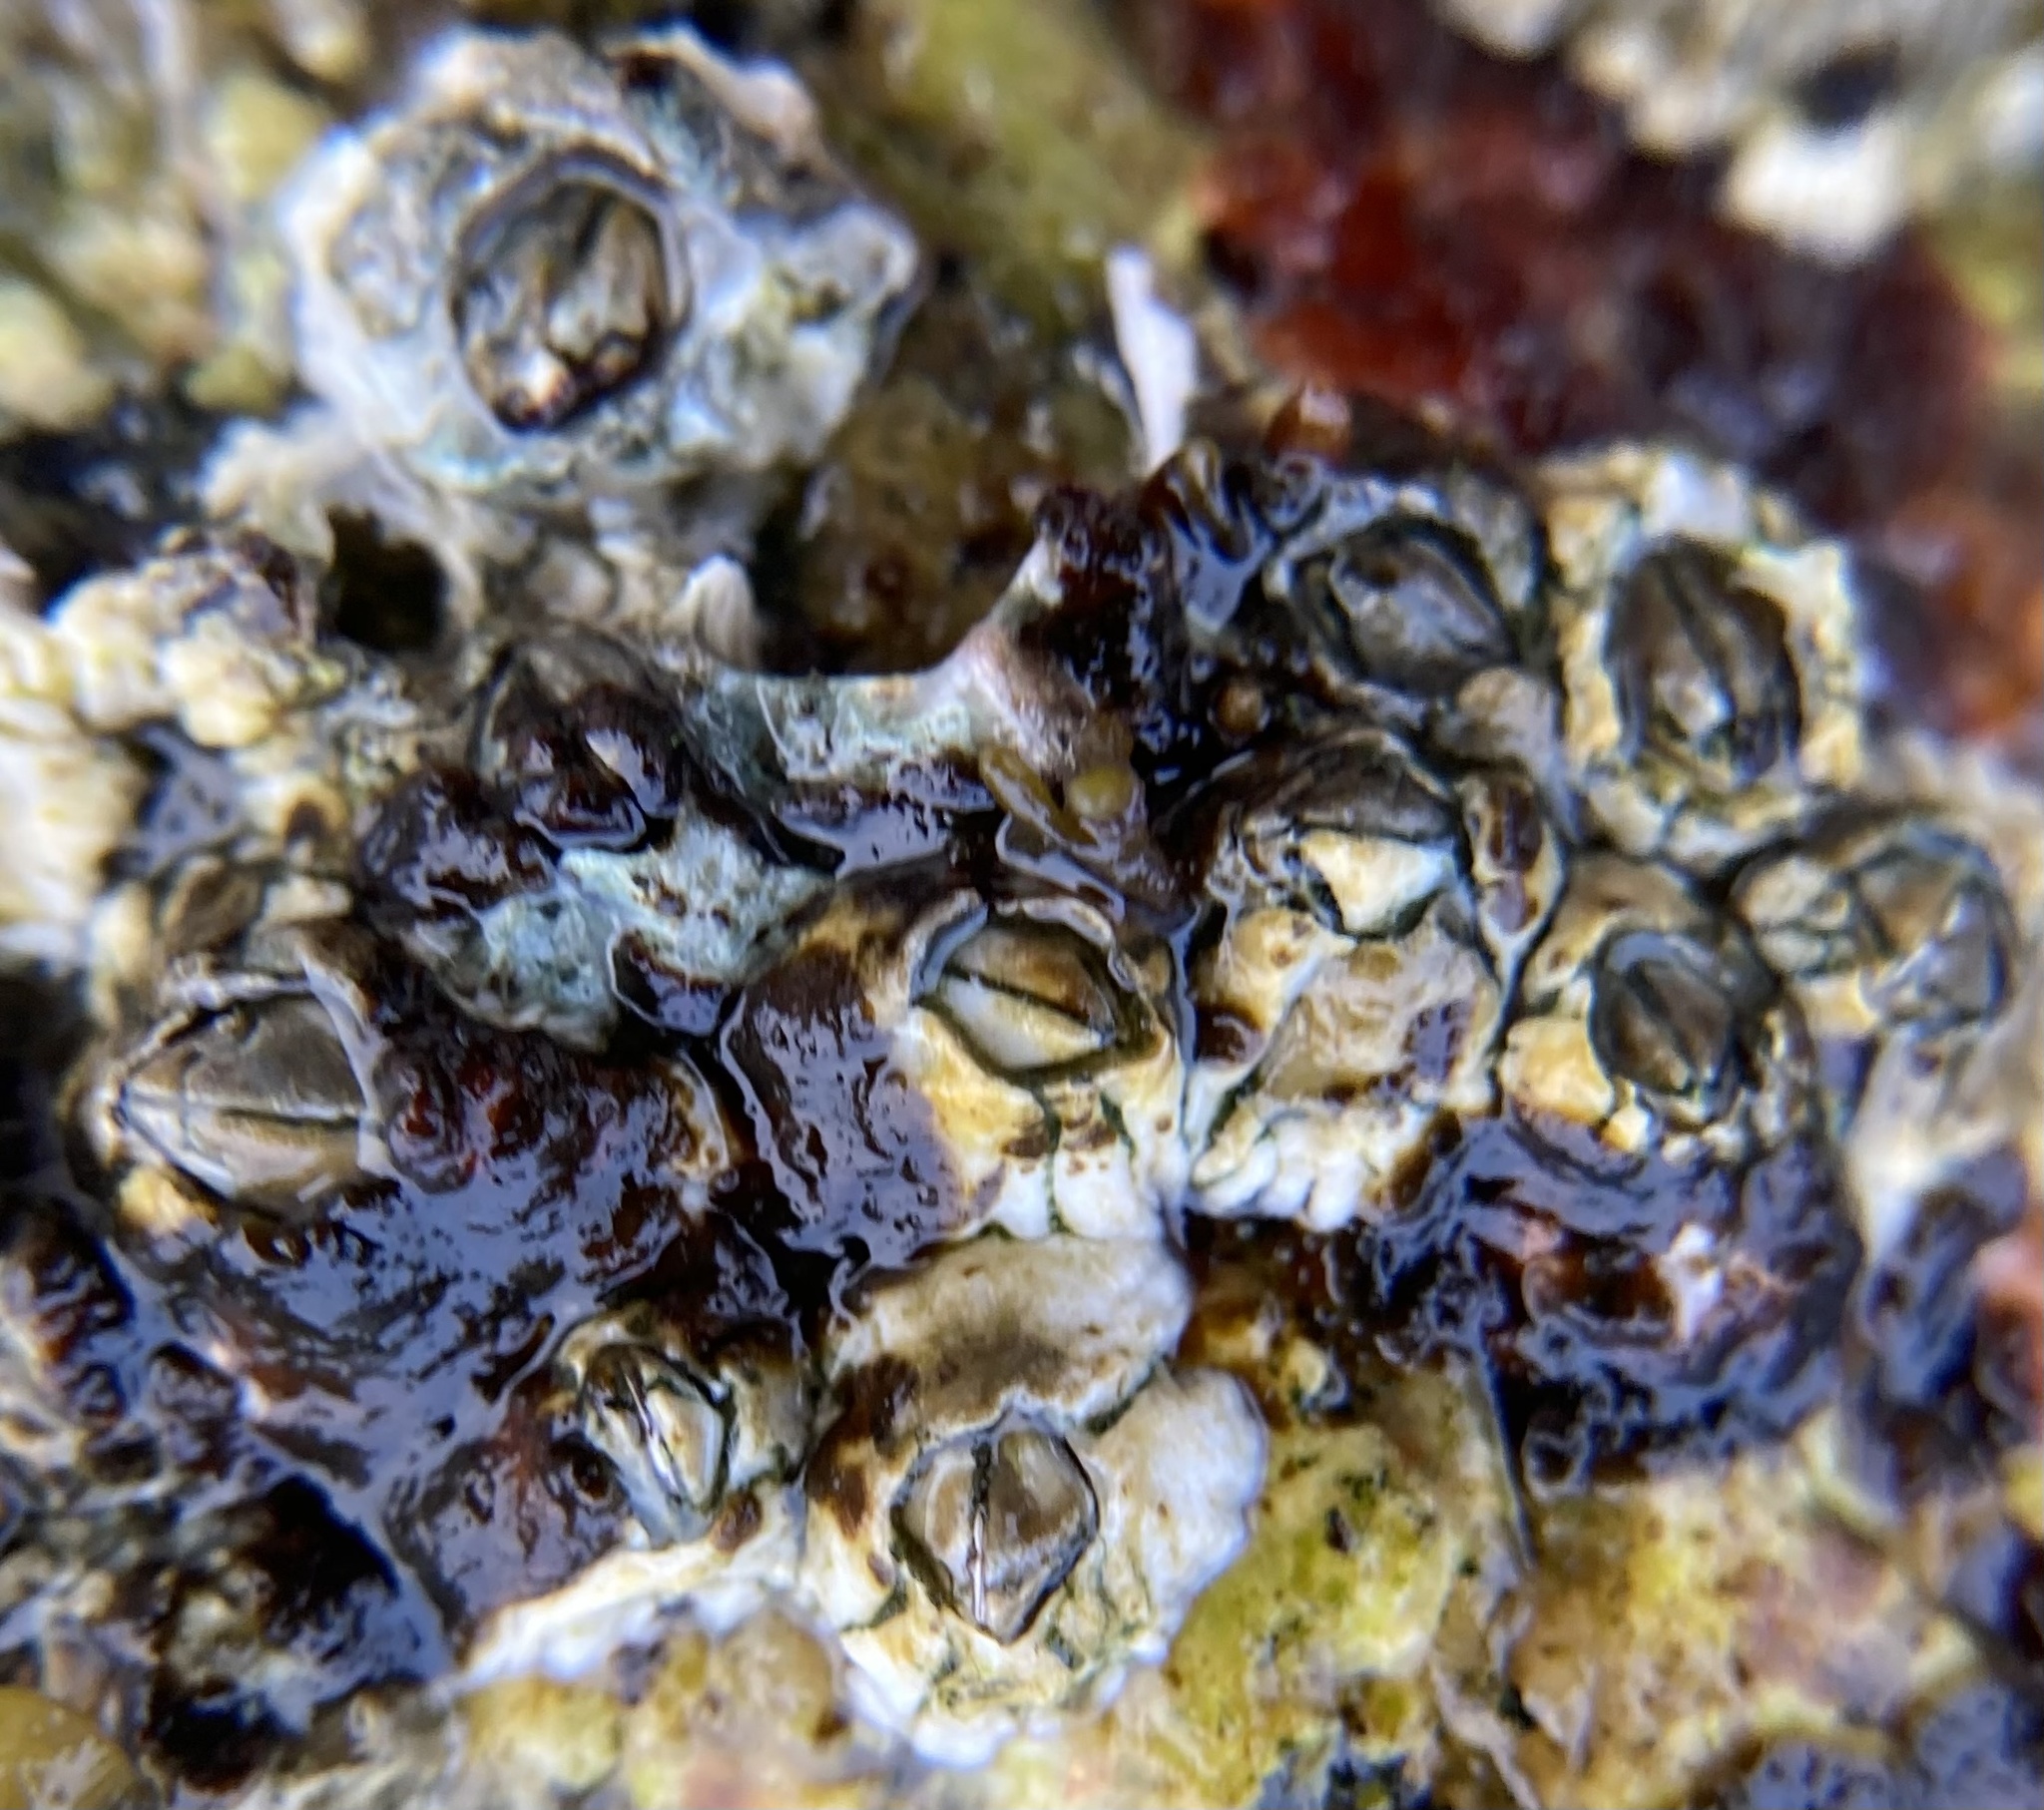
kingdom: Animalia
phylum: Arthropoda
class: Maxillopoda
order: Sessilia
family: Archaeobalanidae
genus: Semibalanus
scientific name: Semibalanus balanoides
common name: Acorn barnacle
